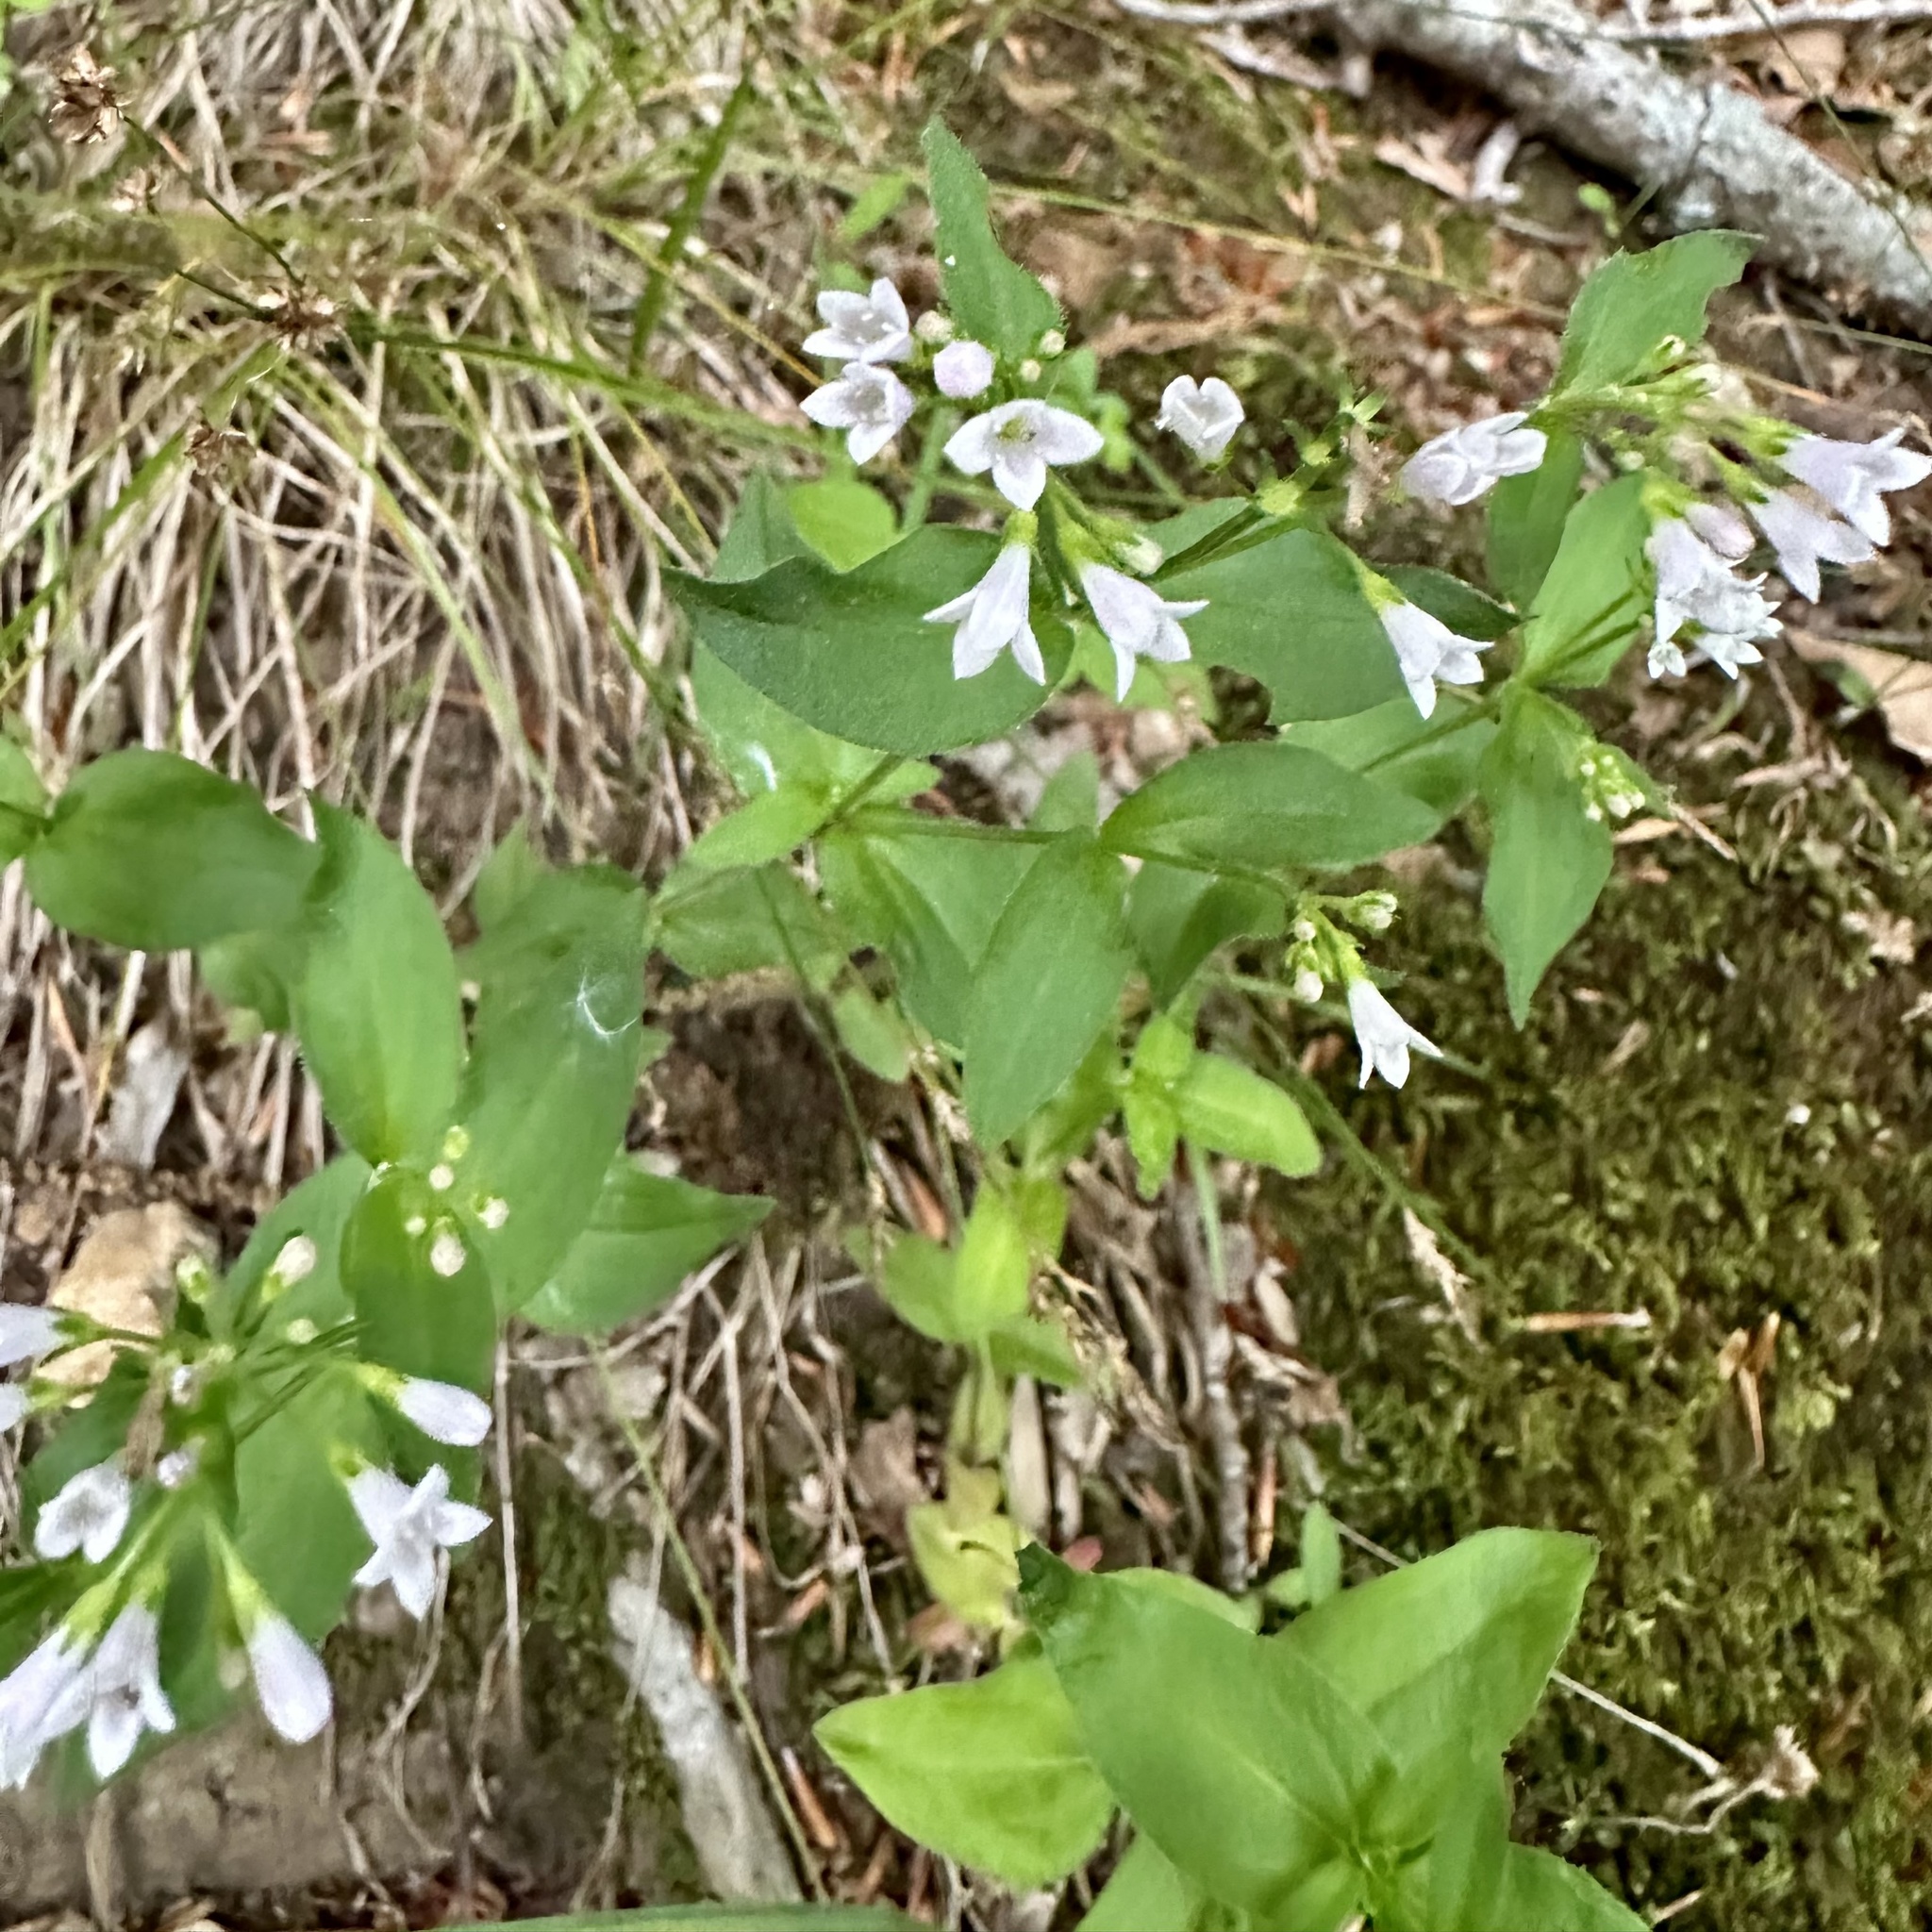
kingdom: Plantae
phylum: Tracheophyta
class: Magnoliopsida
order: Gentianales
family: Rubiaceae
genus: Houstonia
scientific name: Houstonia purpurea
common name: Summer bluet
